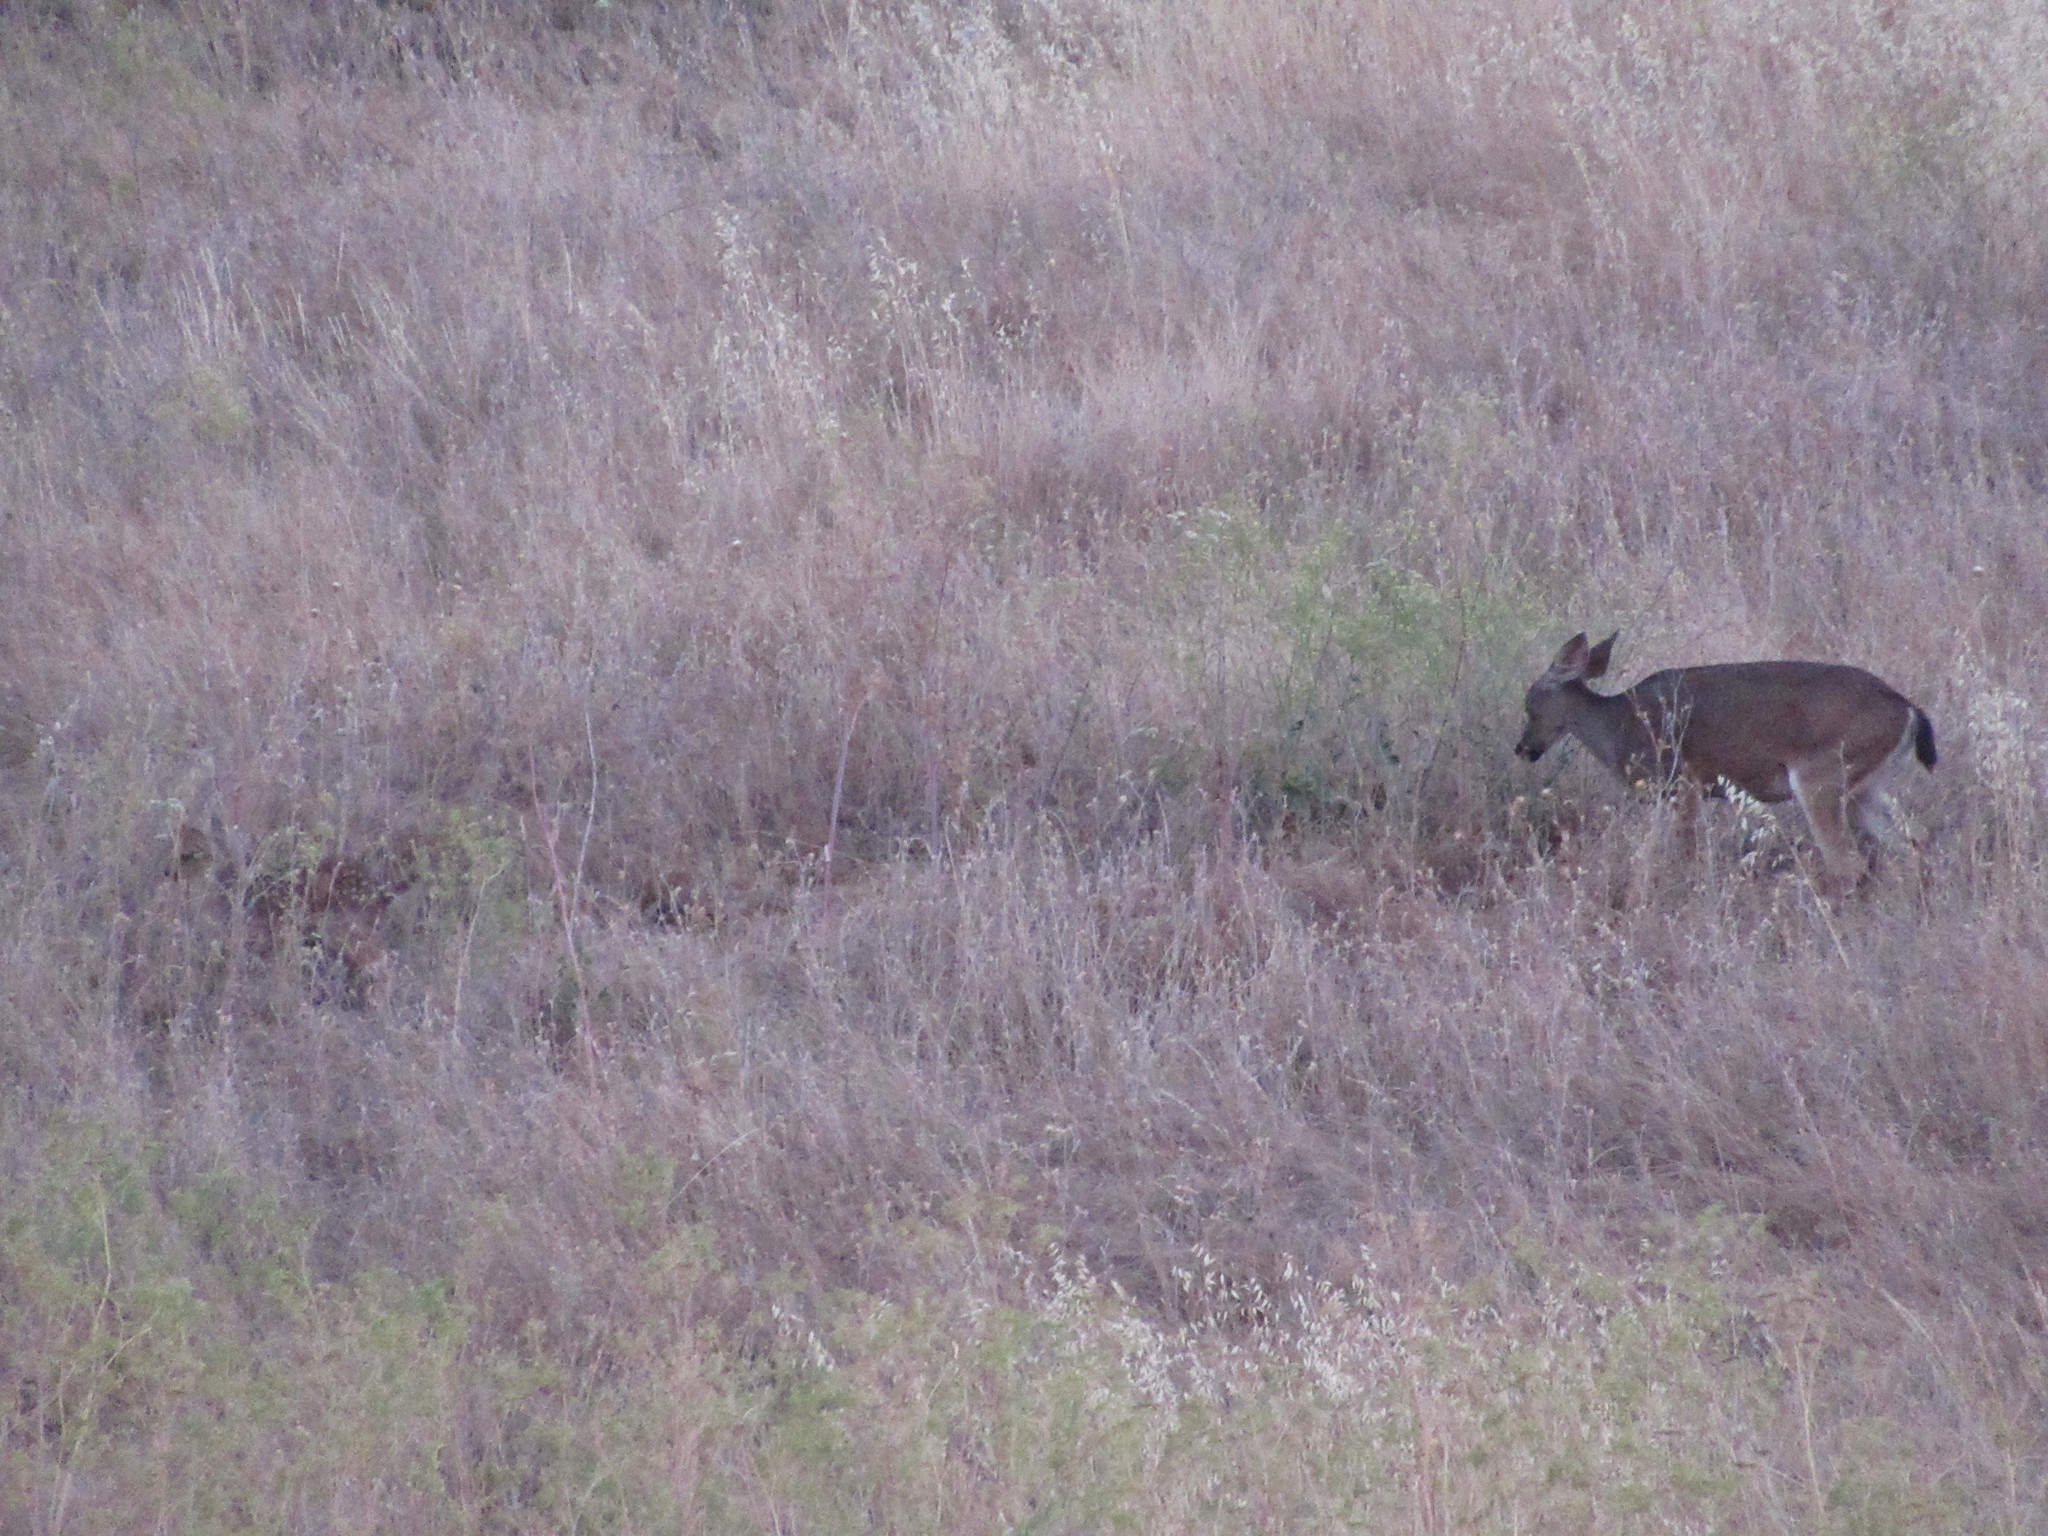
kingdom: Animalia
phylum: Chordata
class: Mammalia
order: Artiodactyla
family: Cervidae
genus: Odocoileus
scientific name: Odocoileus hemionus
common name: Mule deer
